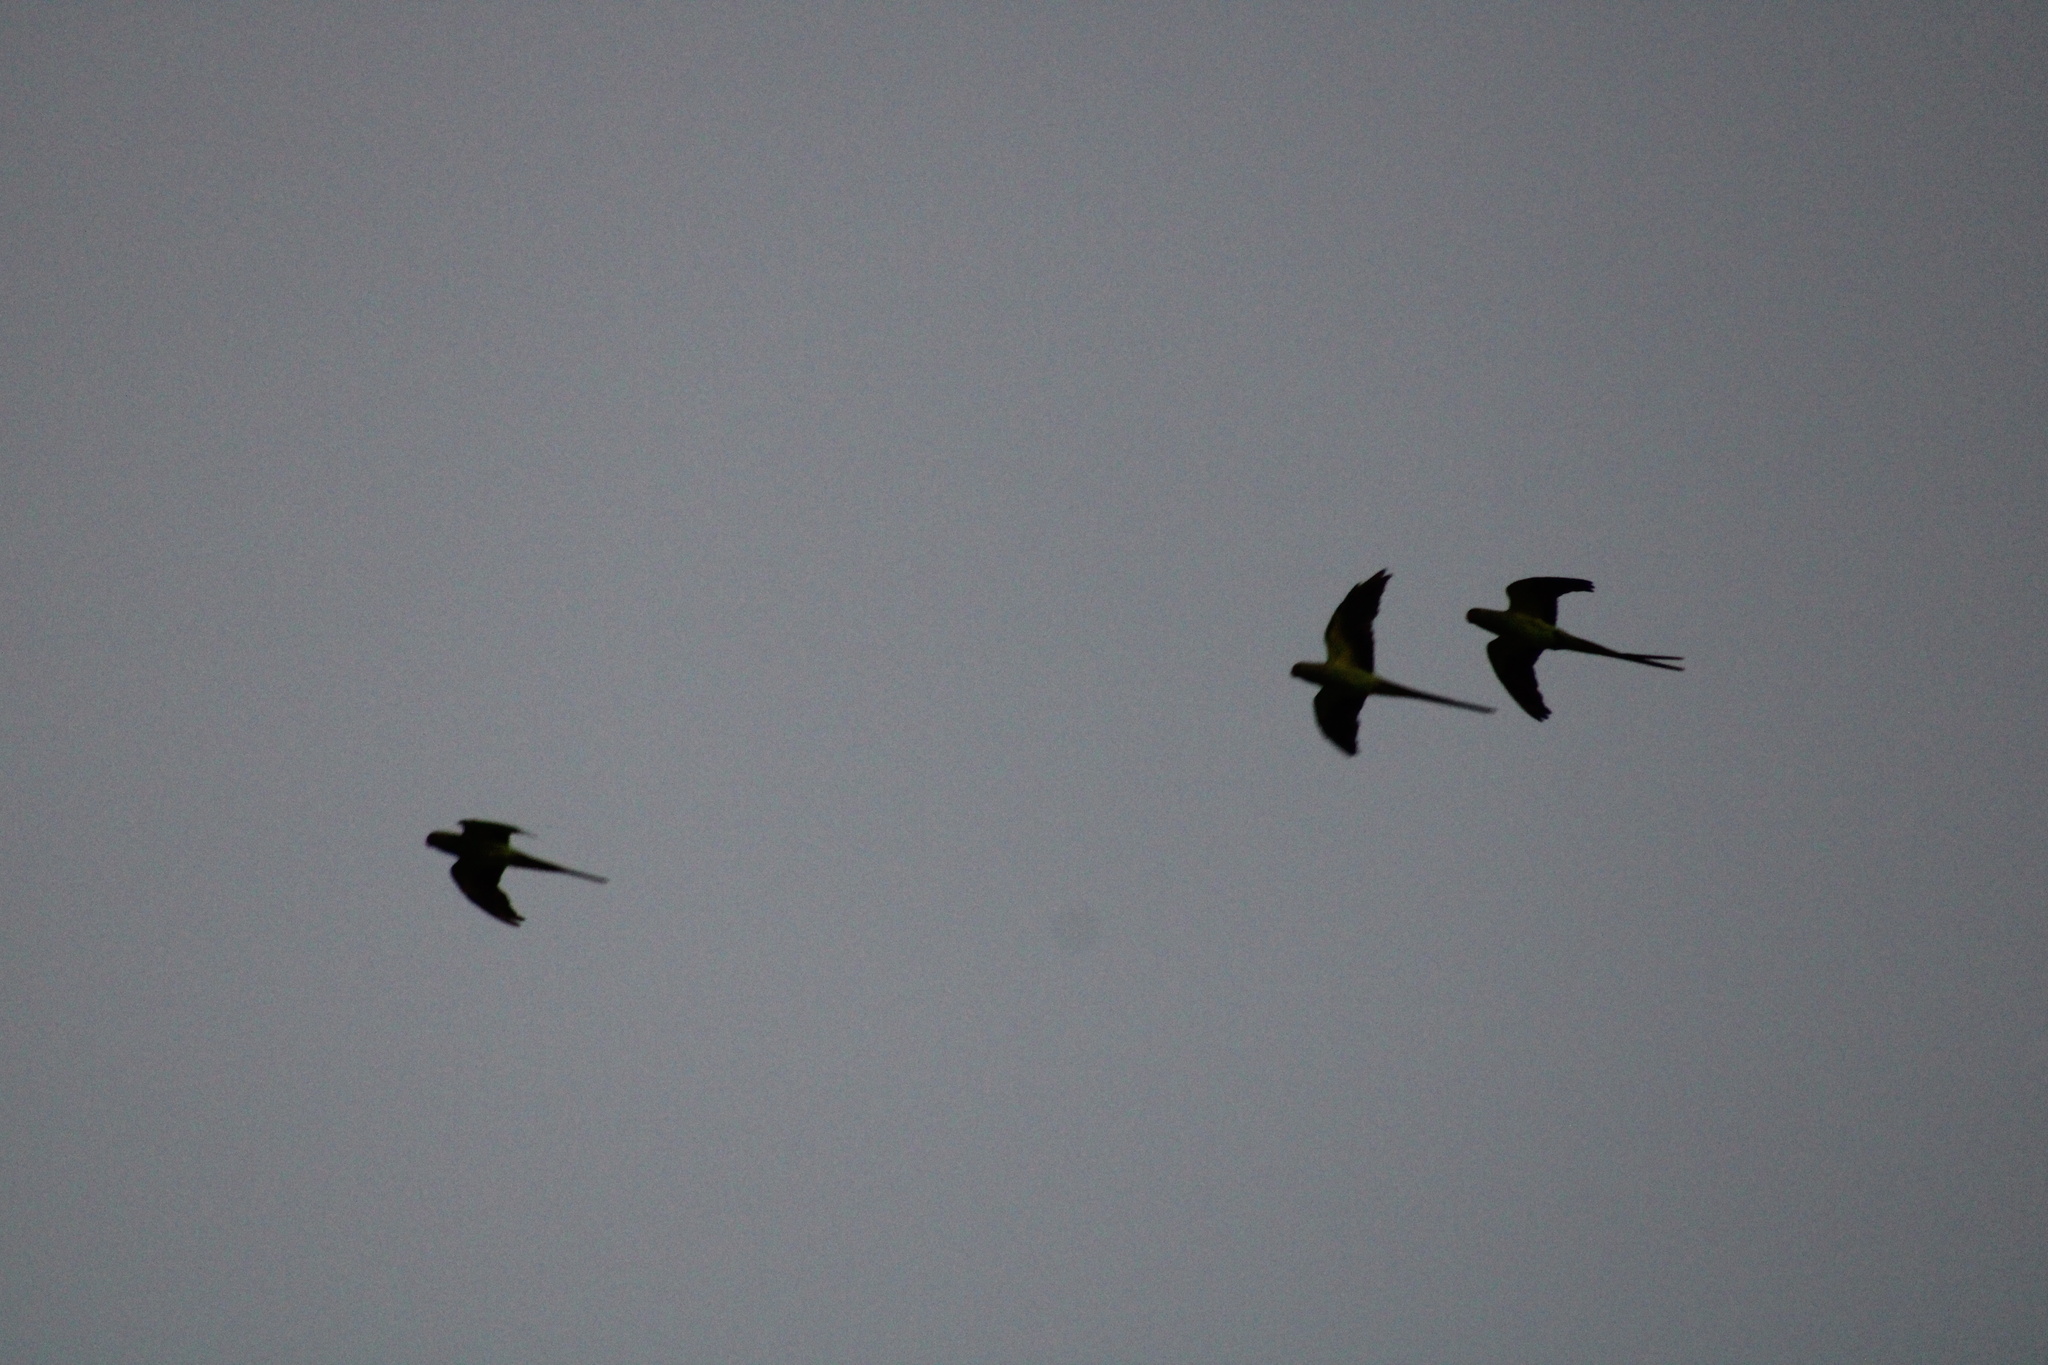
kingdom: Animalia
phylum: Chordata
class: Aves
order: Psittaciformes
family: Psittacidae
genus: Psittacula
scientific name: Psittacula krameri
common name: Rose-ringed parakeet
